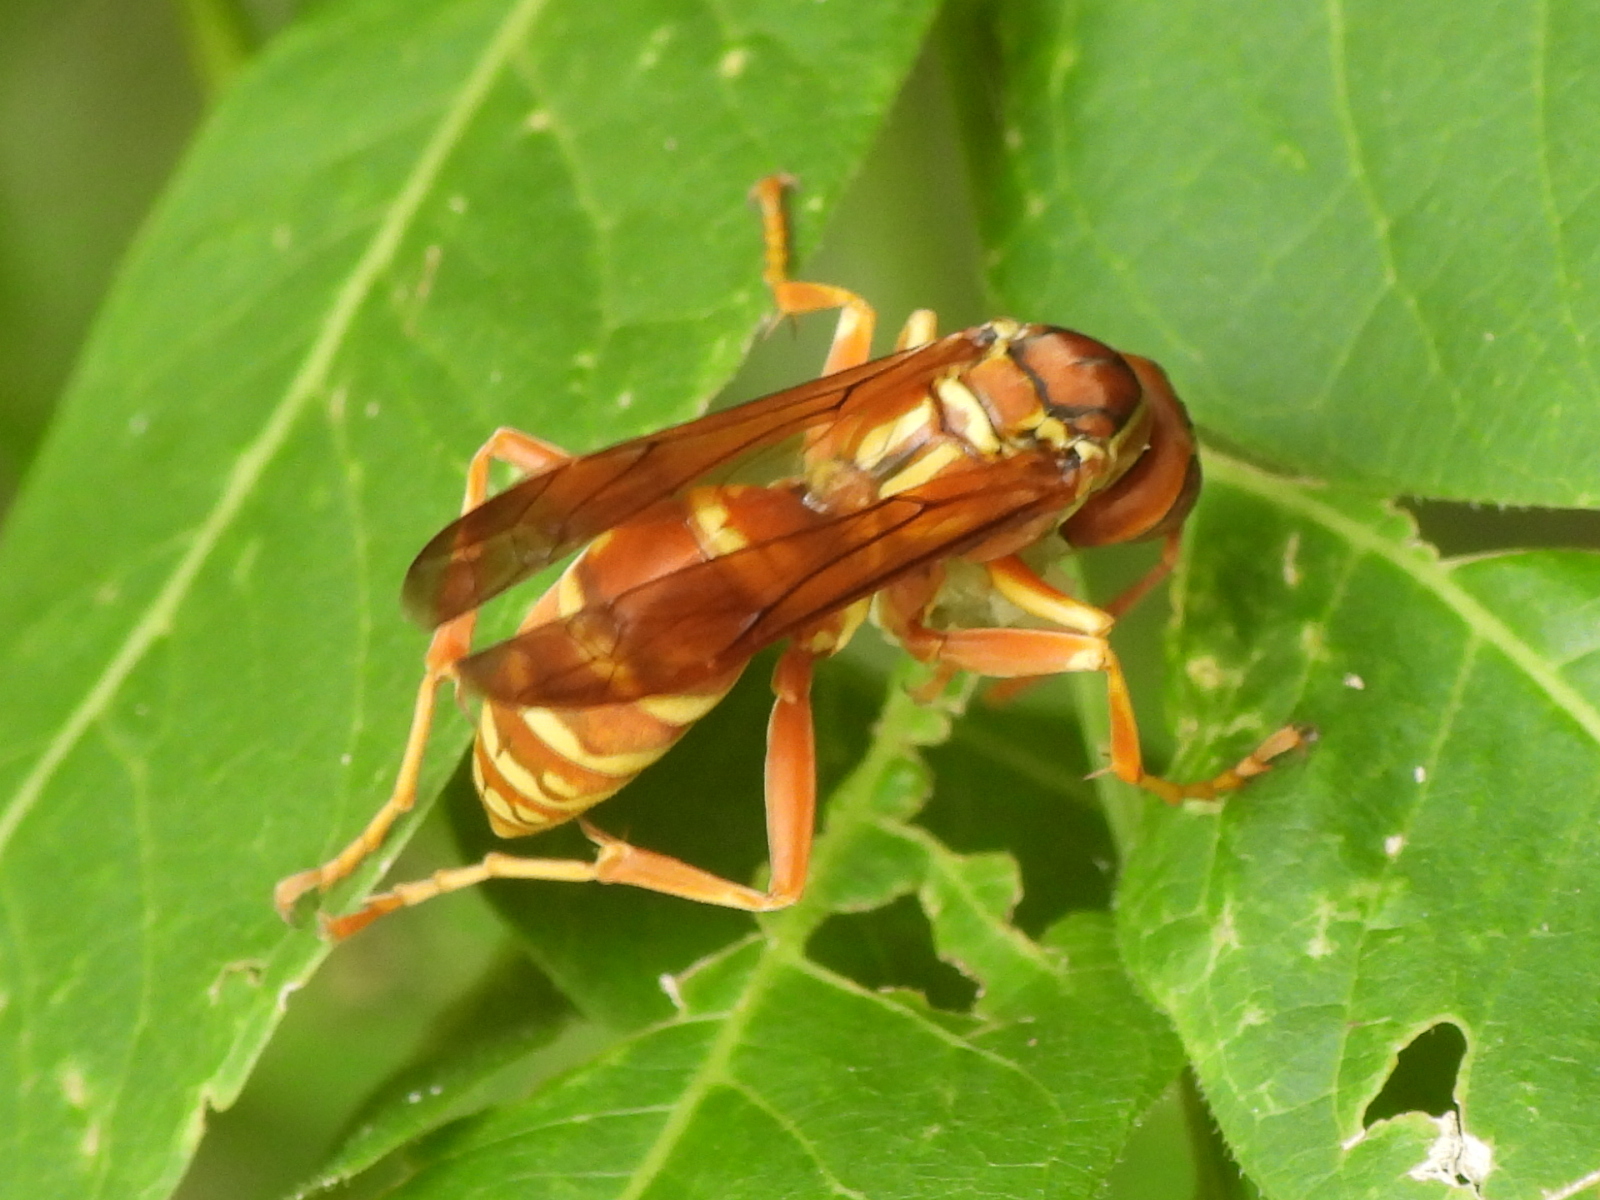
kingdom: Animalia
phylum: Arthropoda
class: Insecta
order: Hymenoptera
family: Eumenidae
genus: Polistes
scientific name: Polistes apachus
